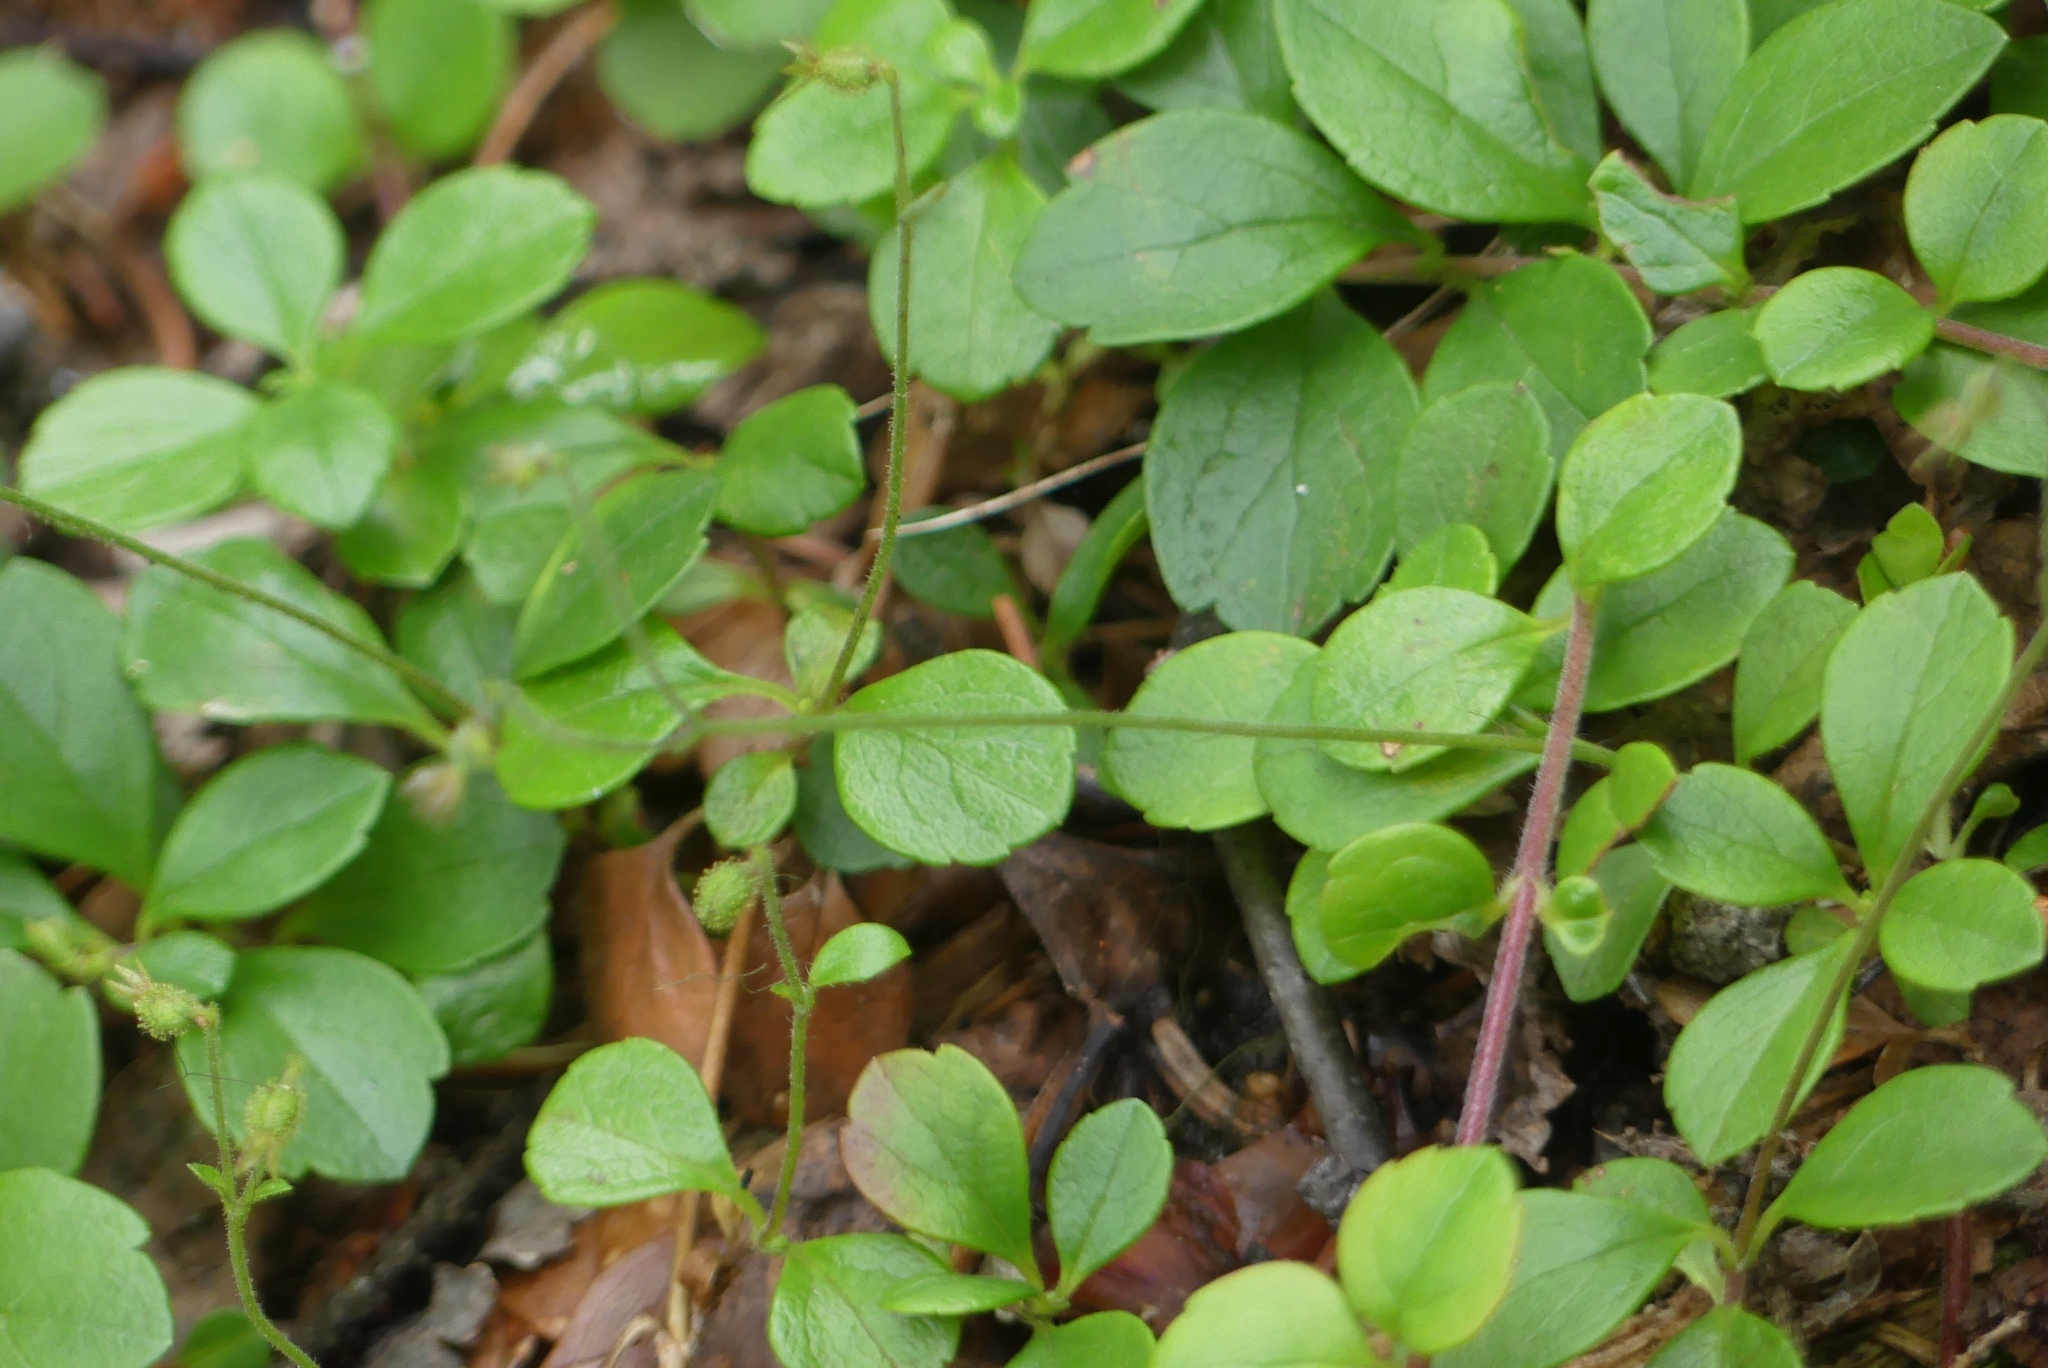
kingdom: Plantae
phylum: Tracheophyta
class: Magnoliopsida
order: Dipsacales
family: Caprifoliaceae
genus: Linnaea
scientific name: Linnaea borealis
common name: Twinflower
